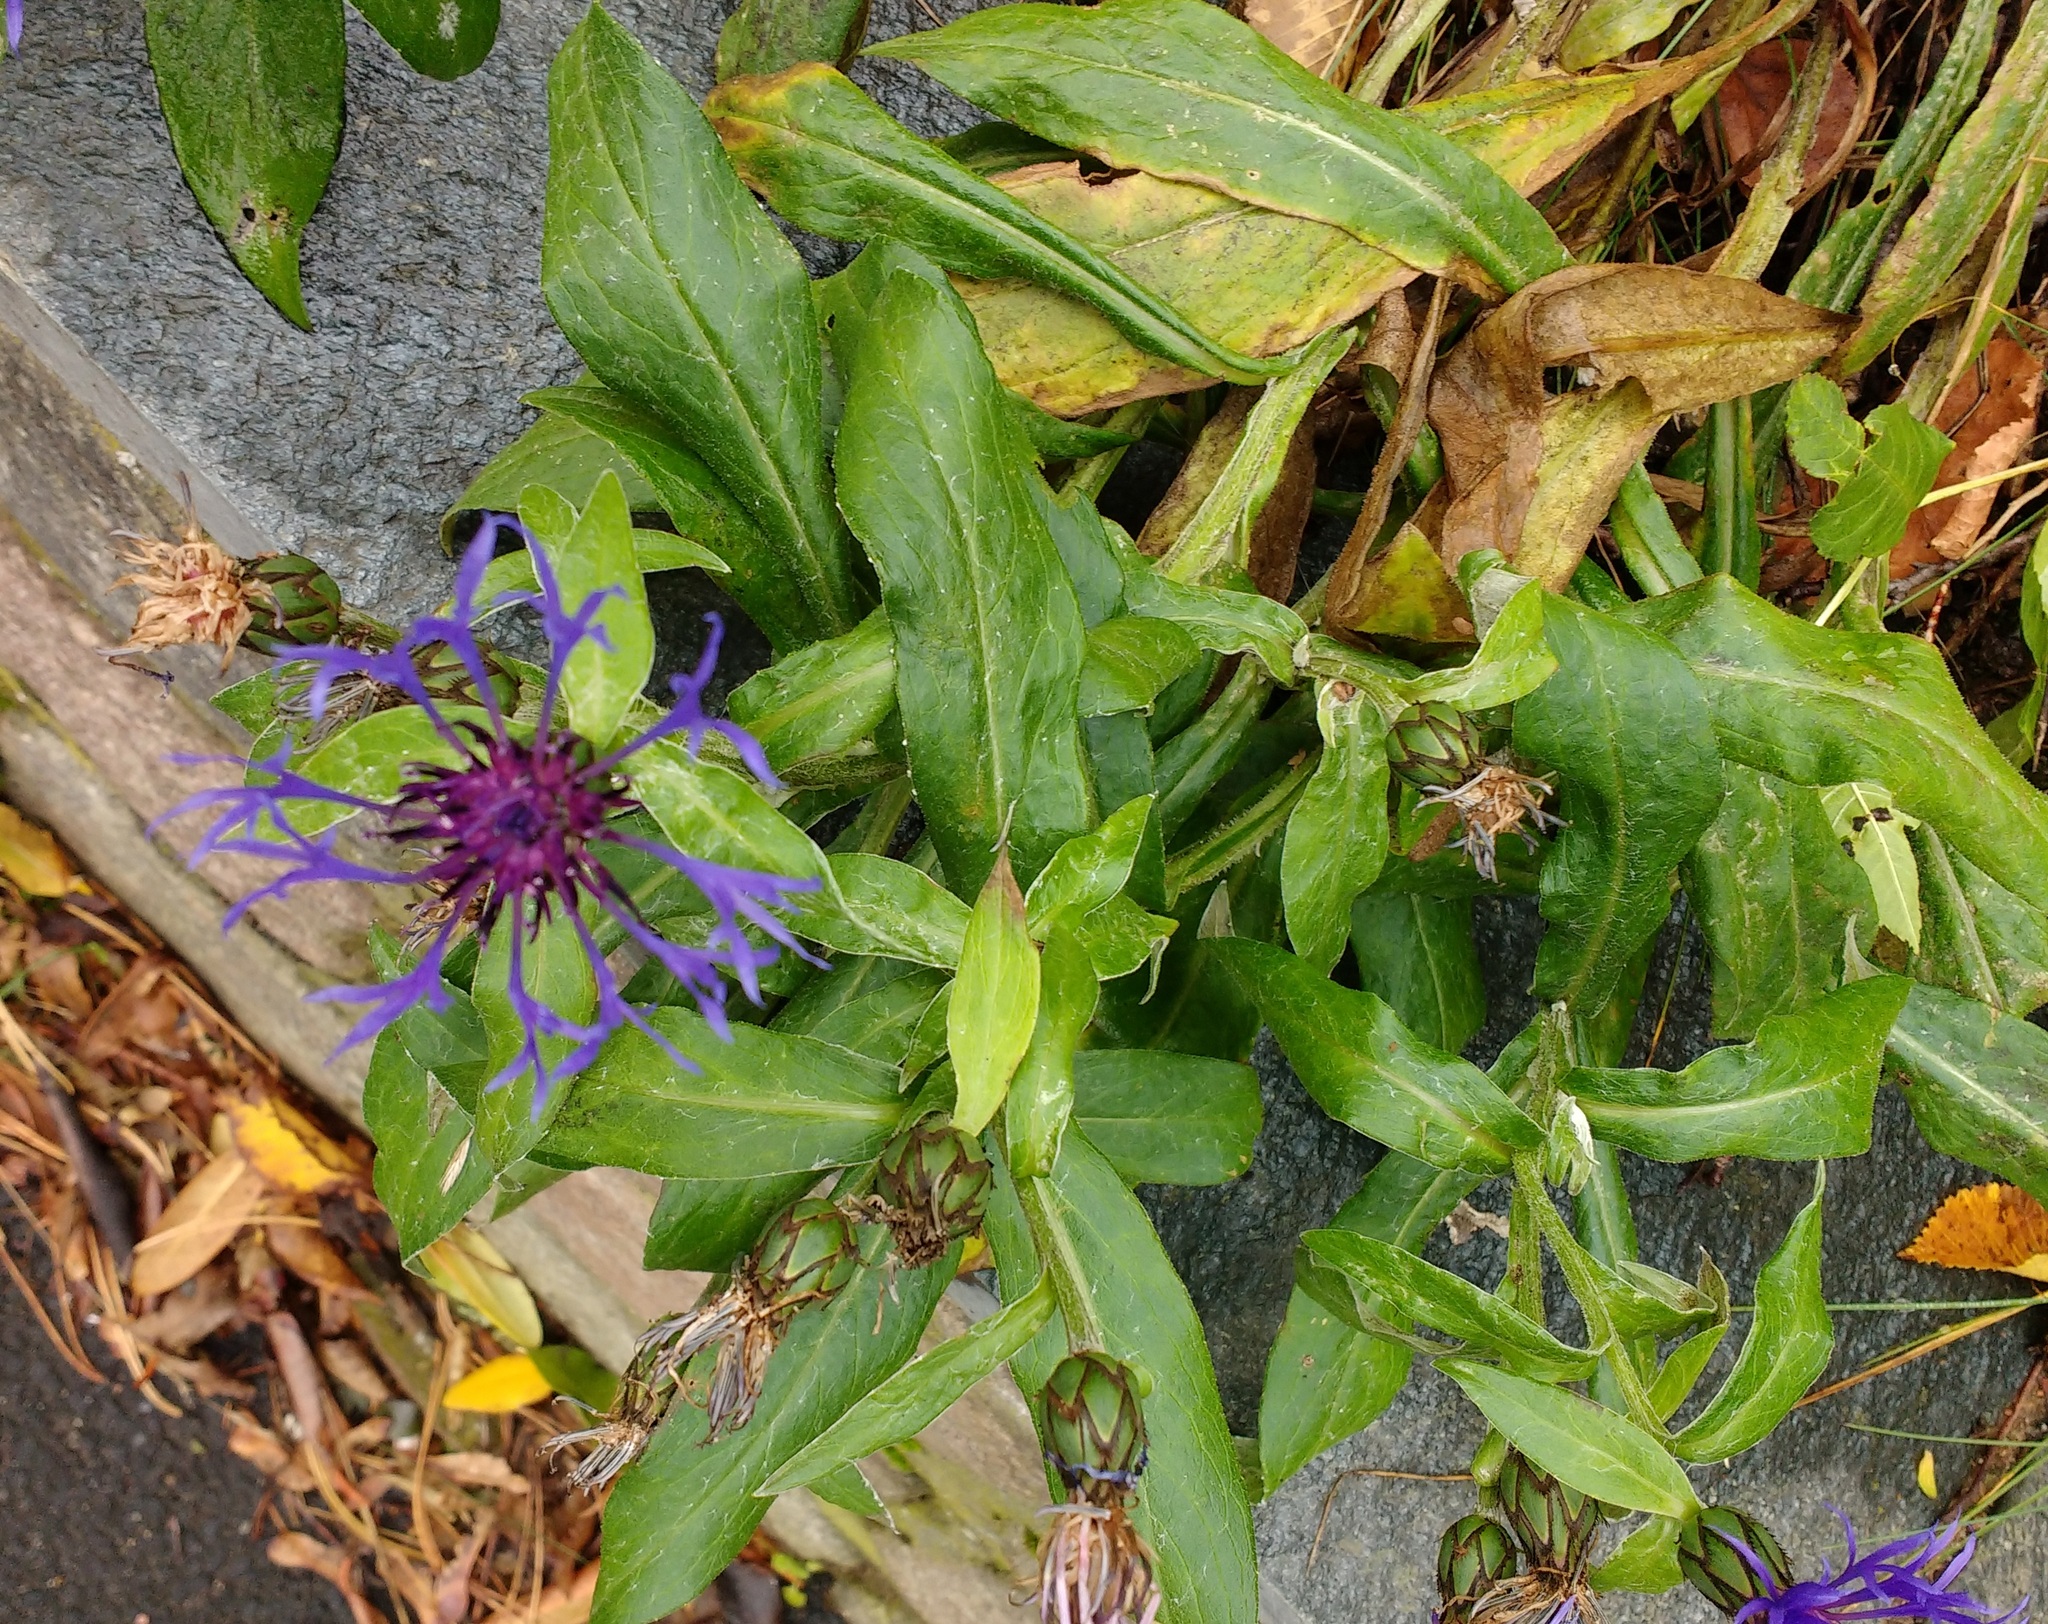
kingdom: Plantae
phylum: Tracheophyta
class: Magnoliopsida
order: Asterales
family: Asteraceae
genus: Centaurea
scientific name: Centaurea montana
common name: Perennial cornflower
